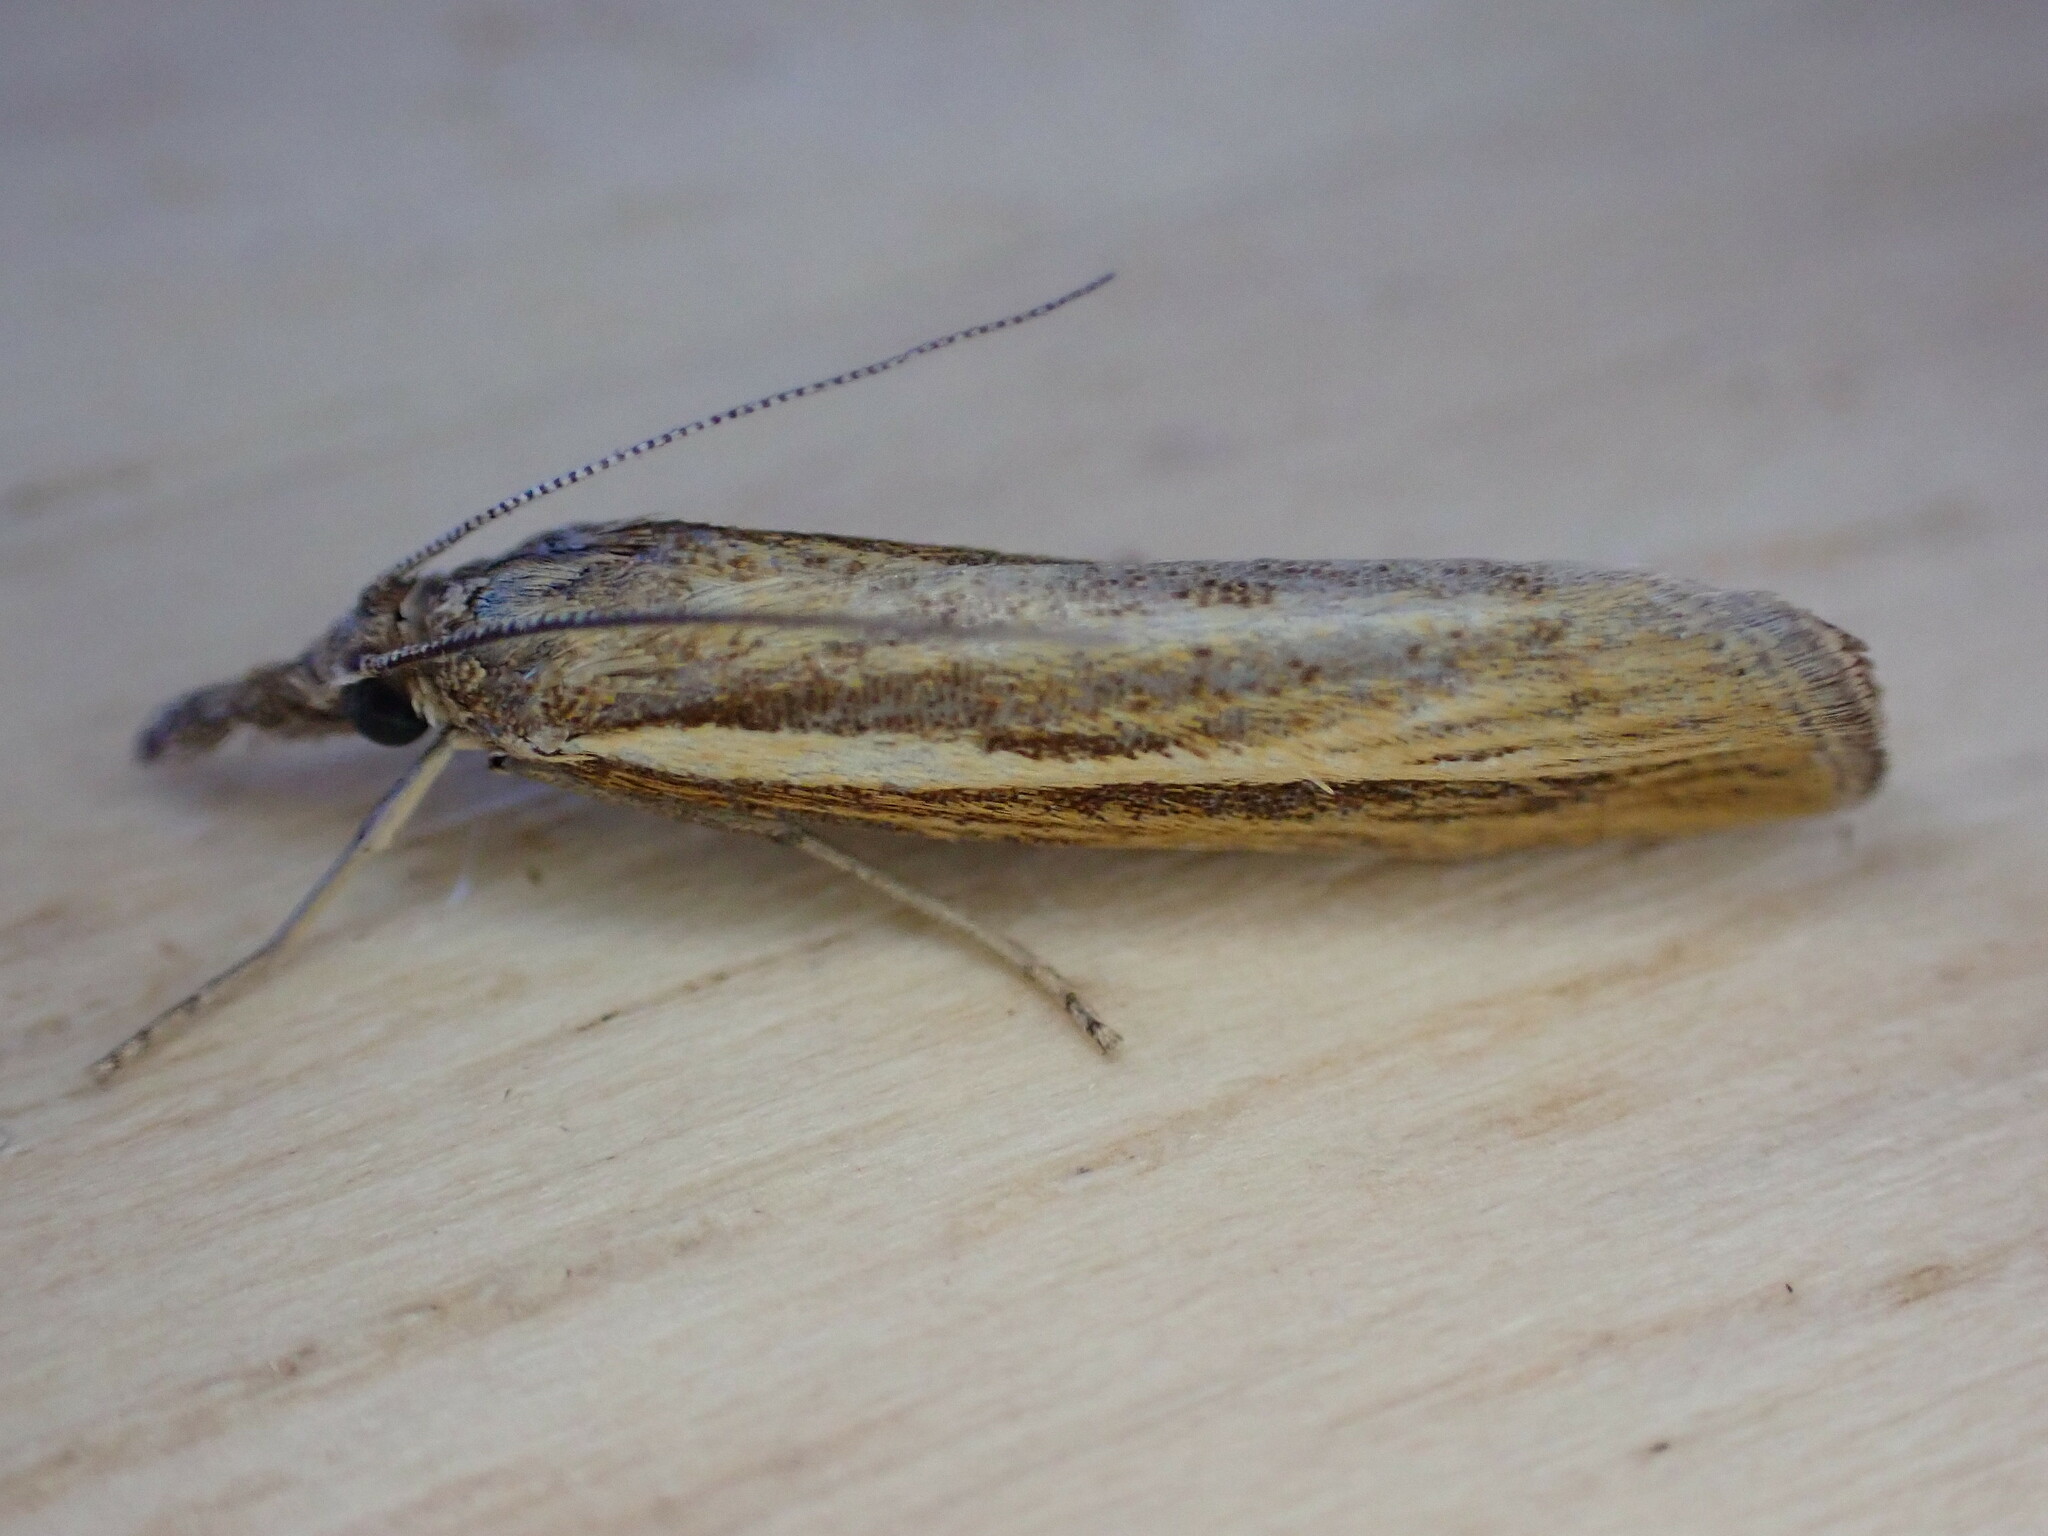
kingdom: Animalia
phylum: Arthropoda
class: Insecta
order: Lepidoptera
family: Crambidae
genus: Agriphila
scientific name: Agriphila tristellus
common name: Common grass-veneer
